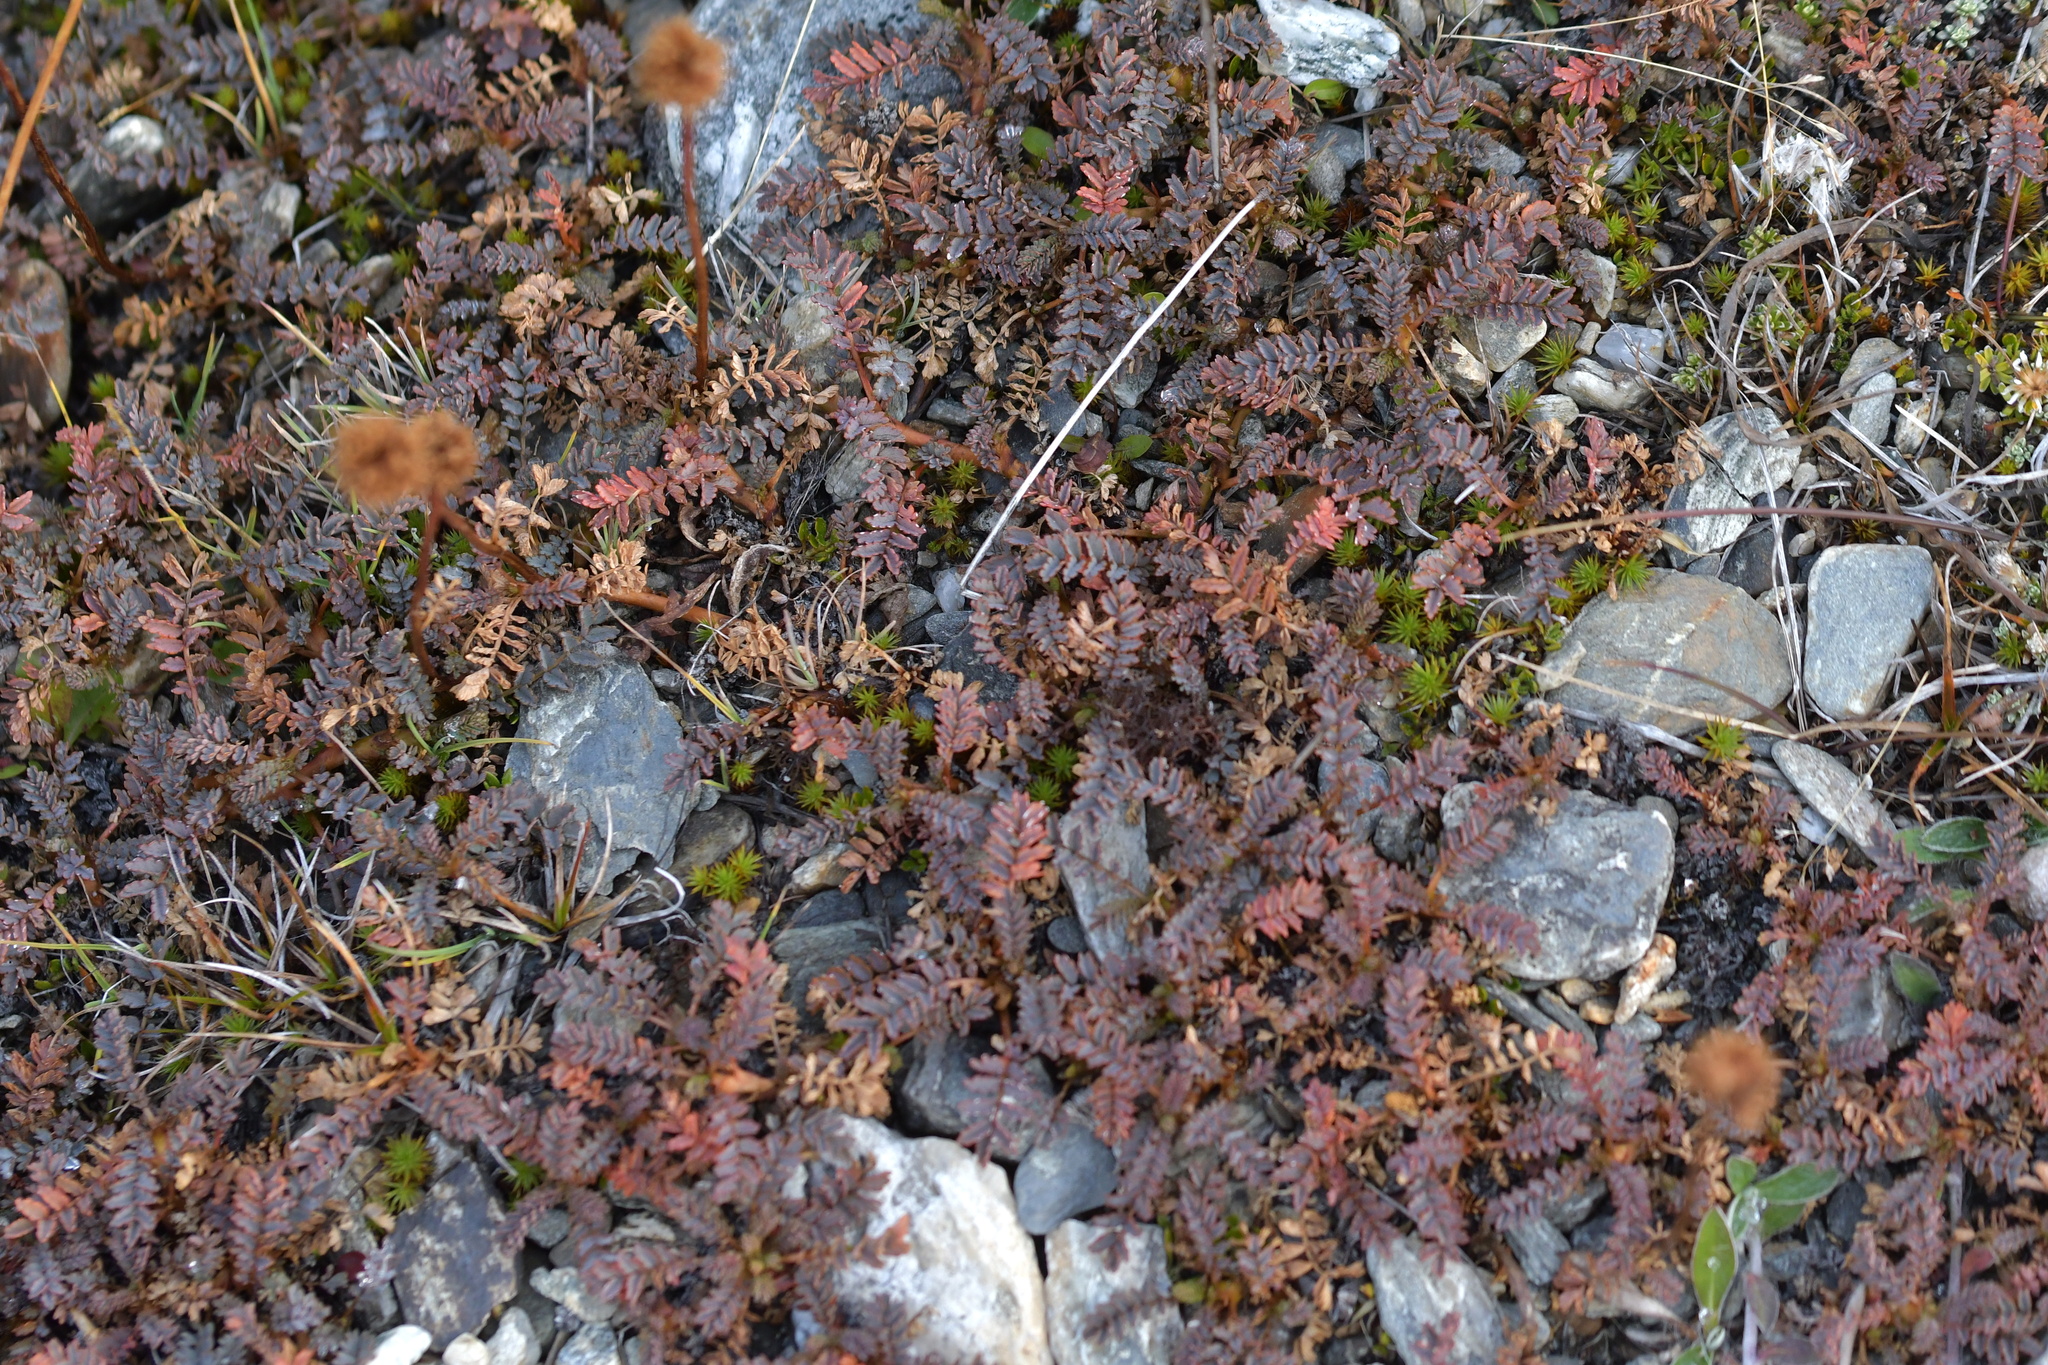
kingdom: Plantae
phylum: Tracheophyta
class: Magnoliopsida
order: Rosales
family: Rosaceae
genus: Acaena
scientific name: Acaena saccaticupula
